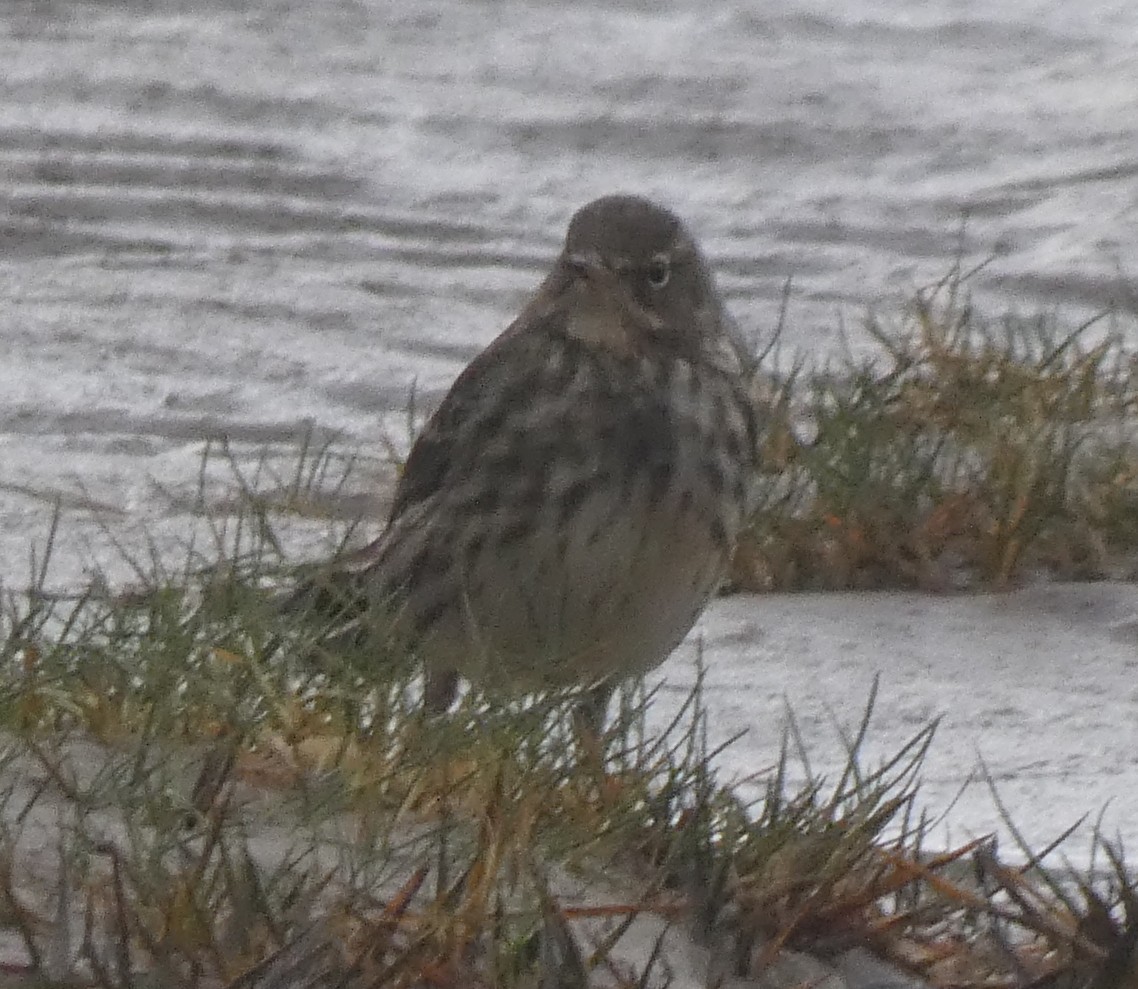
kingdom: Animalia
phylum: Chordata
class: Aves
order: Passeriformes
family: Motacillidae
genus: Anthus
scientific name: Anthus petrosus
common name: Eurasian rock pipit
